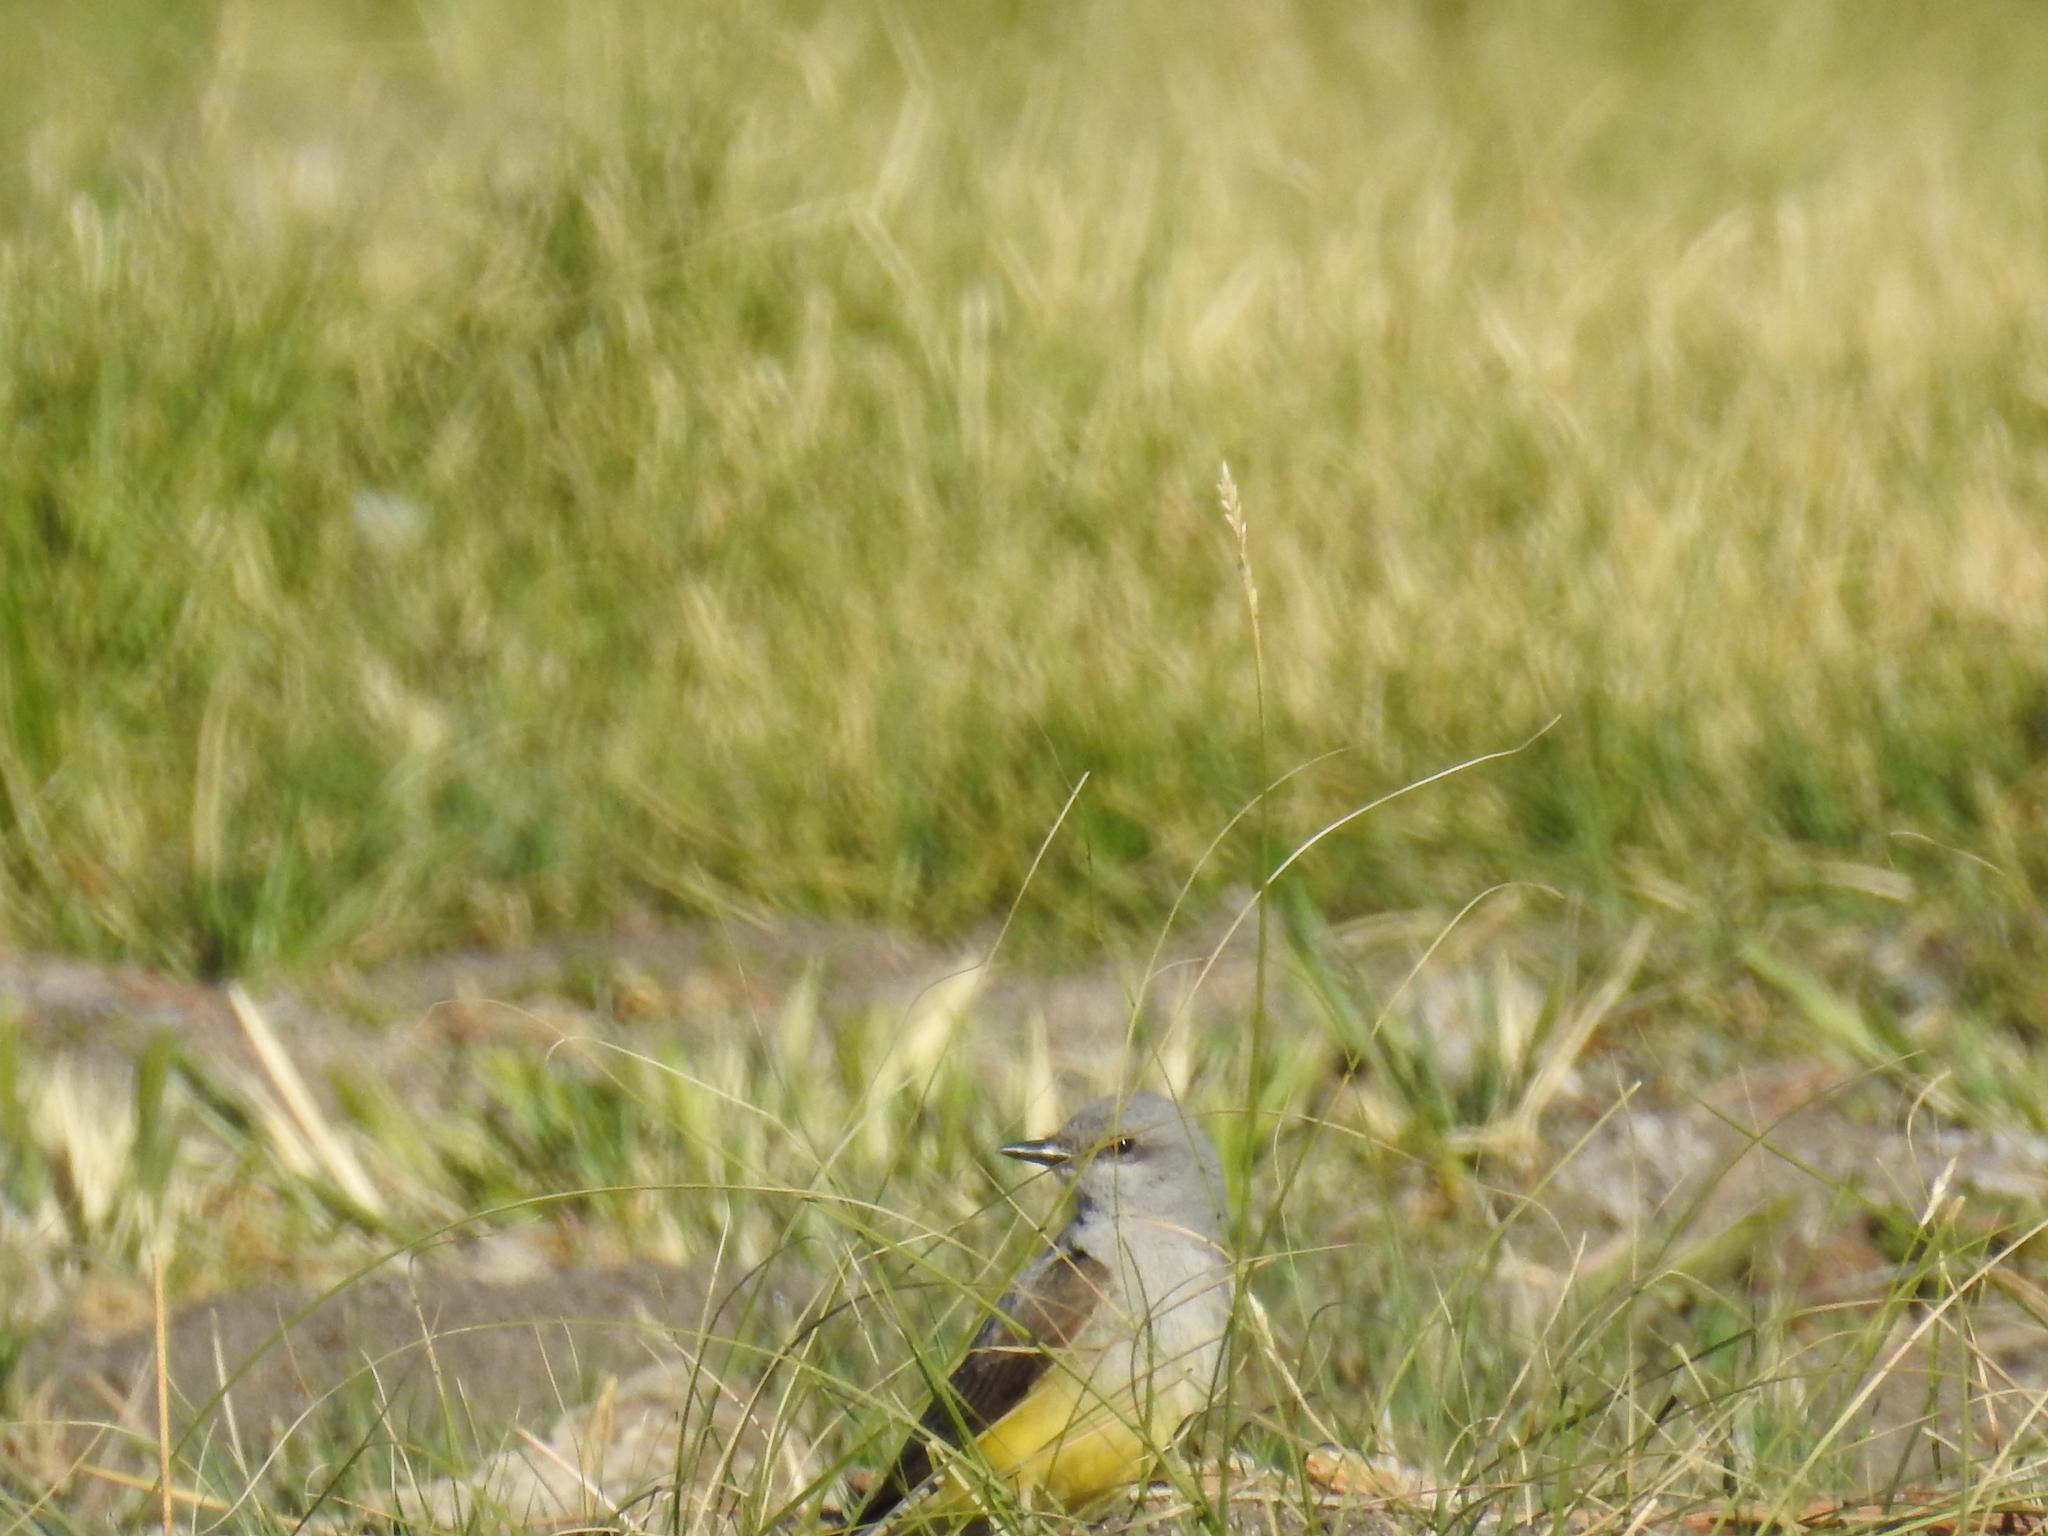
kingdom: Animalia
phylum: Chordata
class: Aves
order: Passeriformes
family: Tyrannidae
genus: Tyrannus
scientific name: Tyrannus verticalis
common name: Western kingbird
